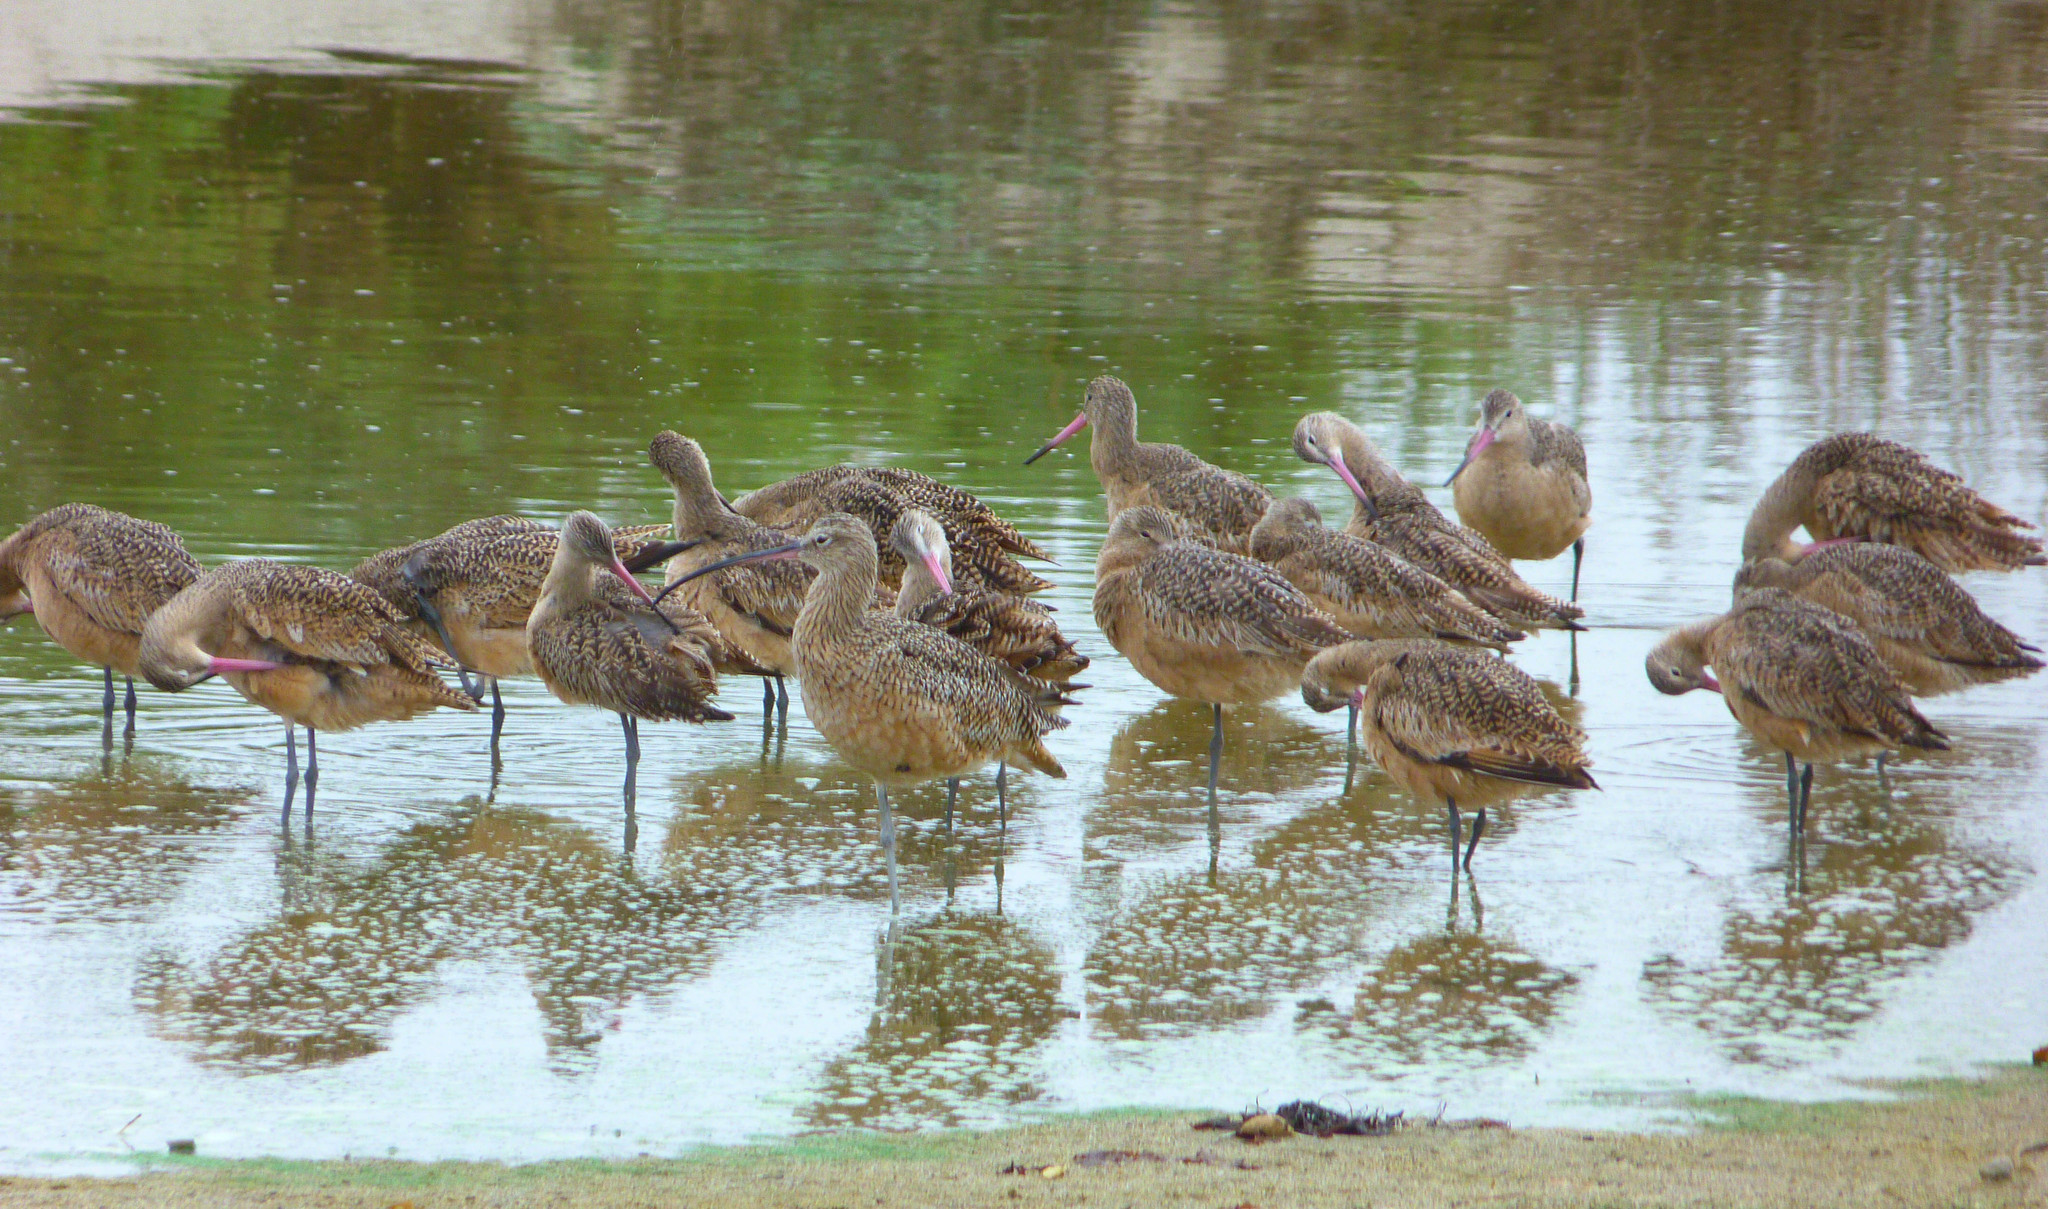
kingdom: Animalia
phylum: Chordata
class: Aves
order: Charadriiformes
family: Scolopacidae
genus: Limosa
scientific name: Limosa fedoa
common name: Marbled godwit
